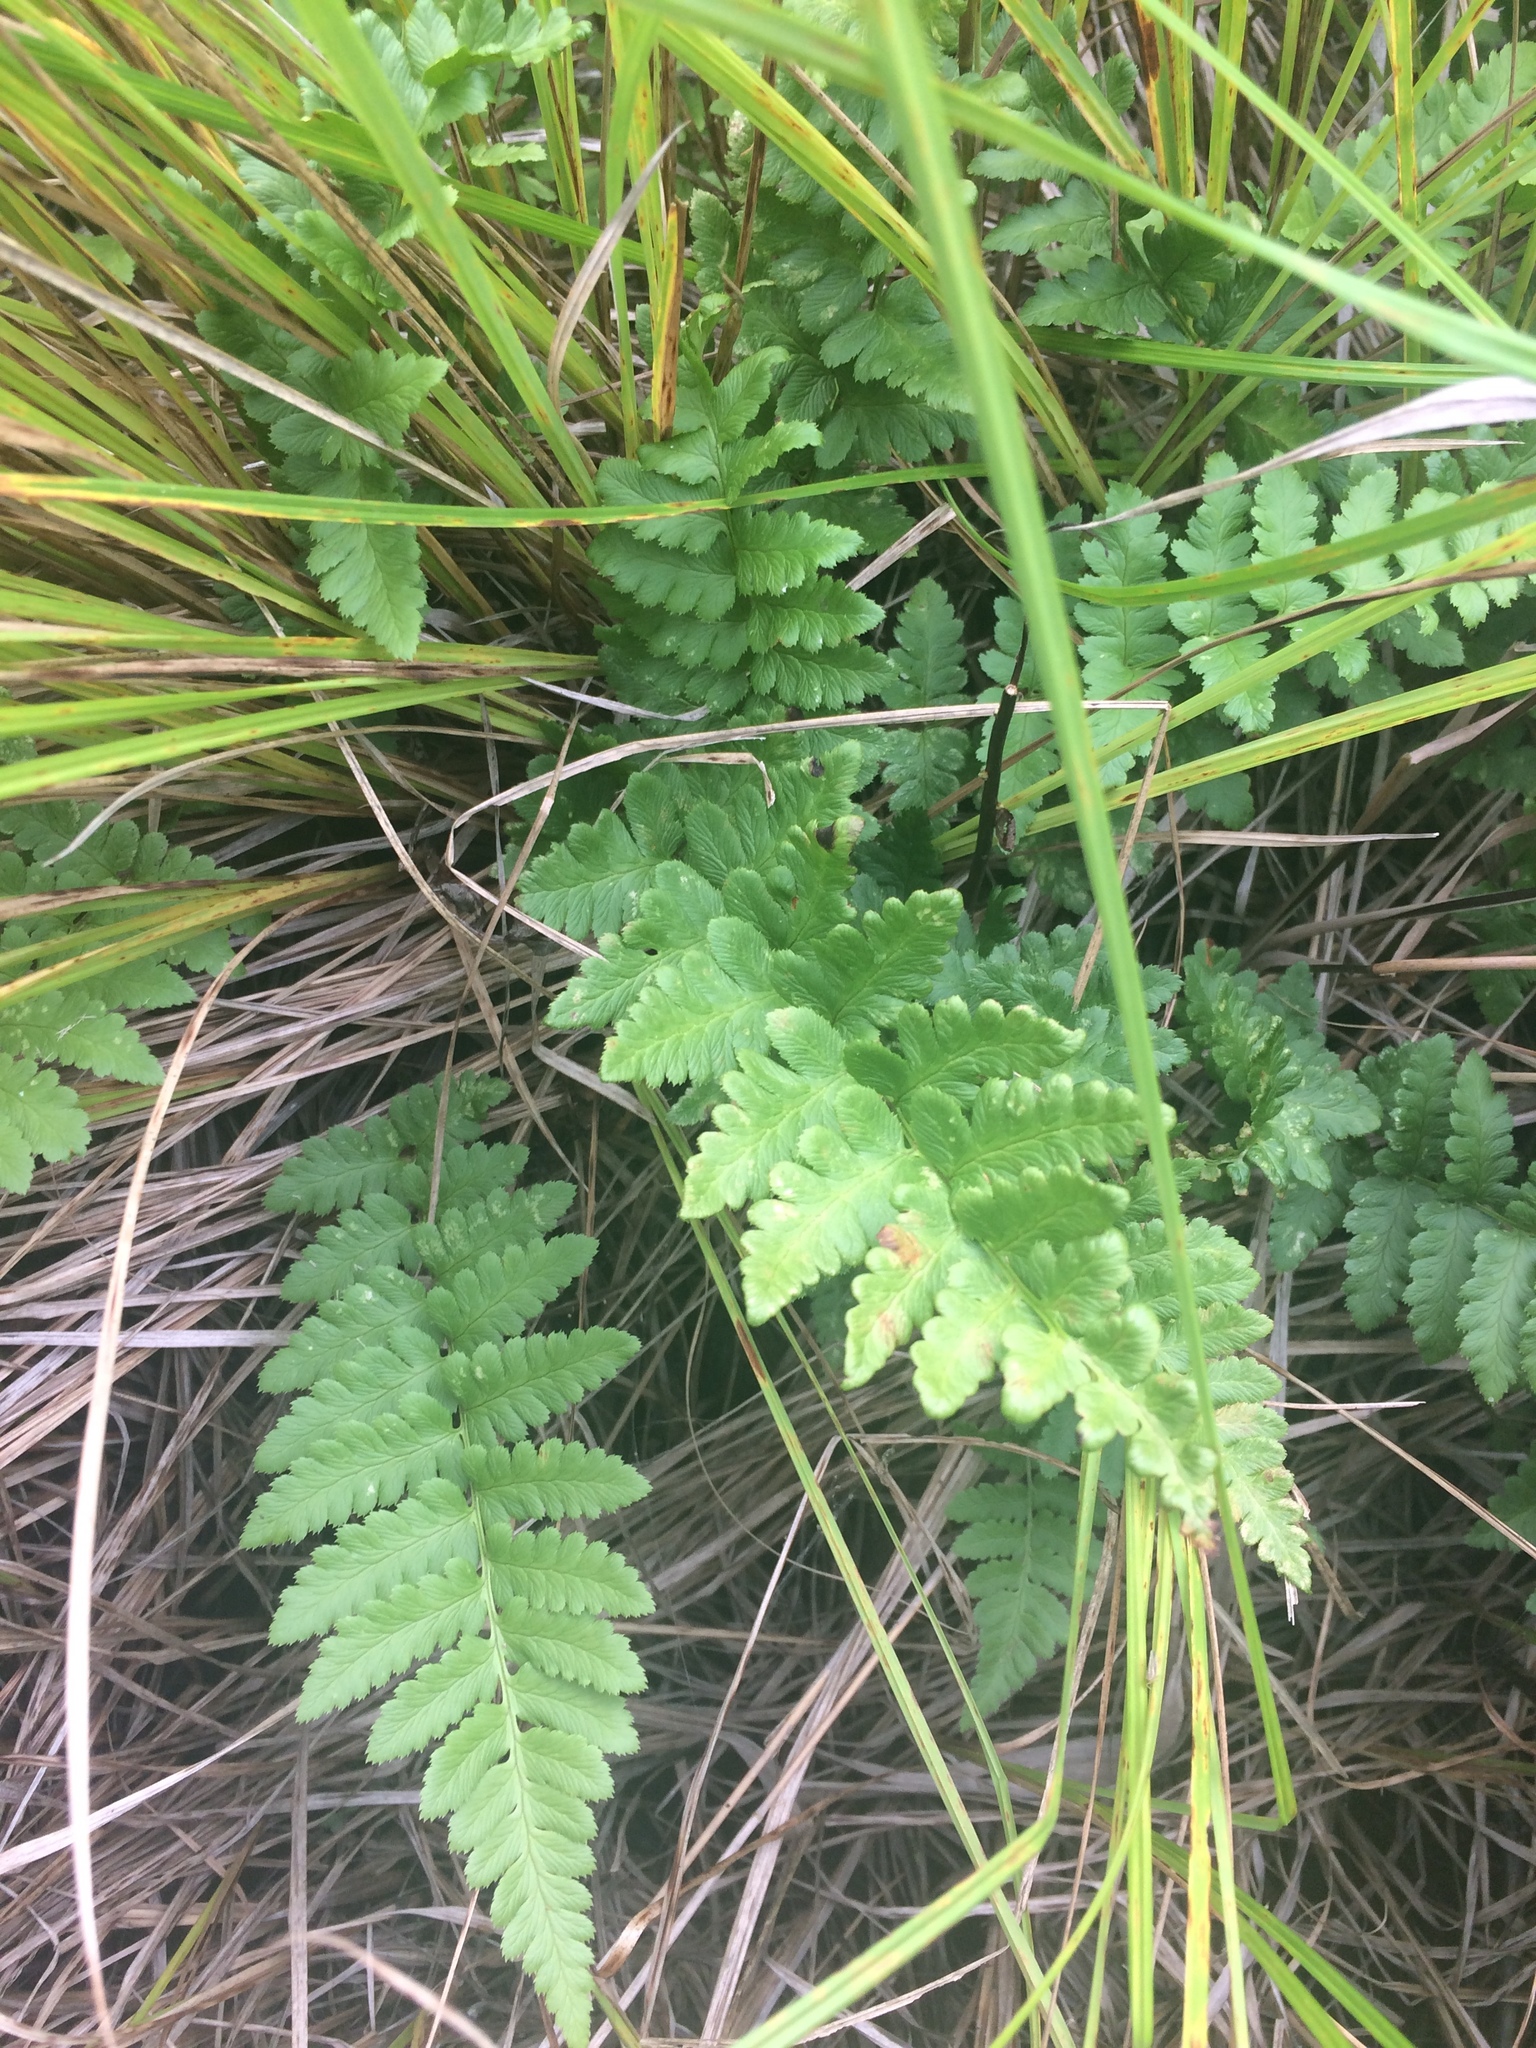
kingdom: Plantae
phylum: Tracheophyta
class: Polypodiopsida
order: Polypodiales
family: Dryopteridaceae
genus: Dryopteris
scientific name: Dryopteris cristata
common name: Crested wood fern
